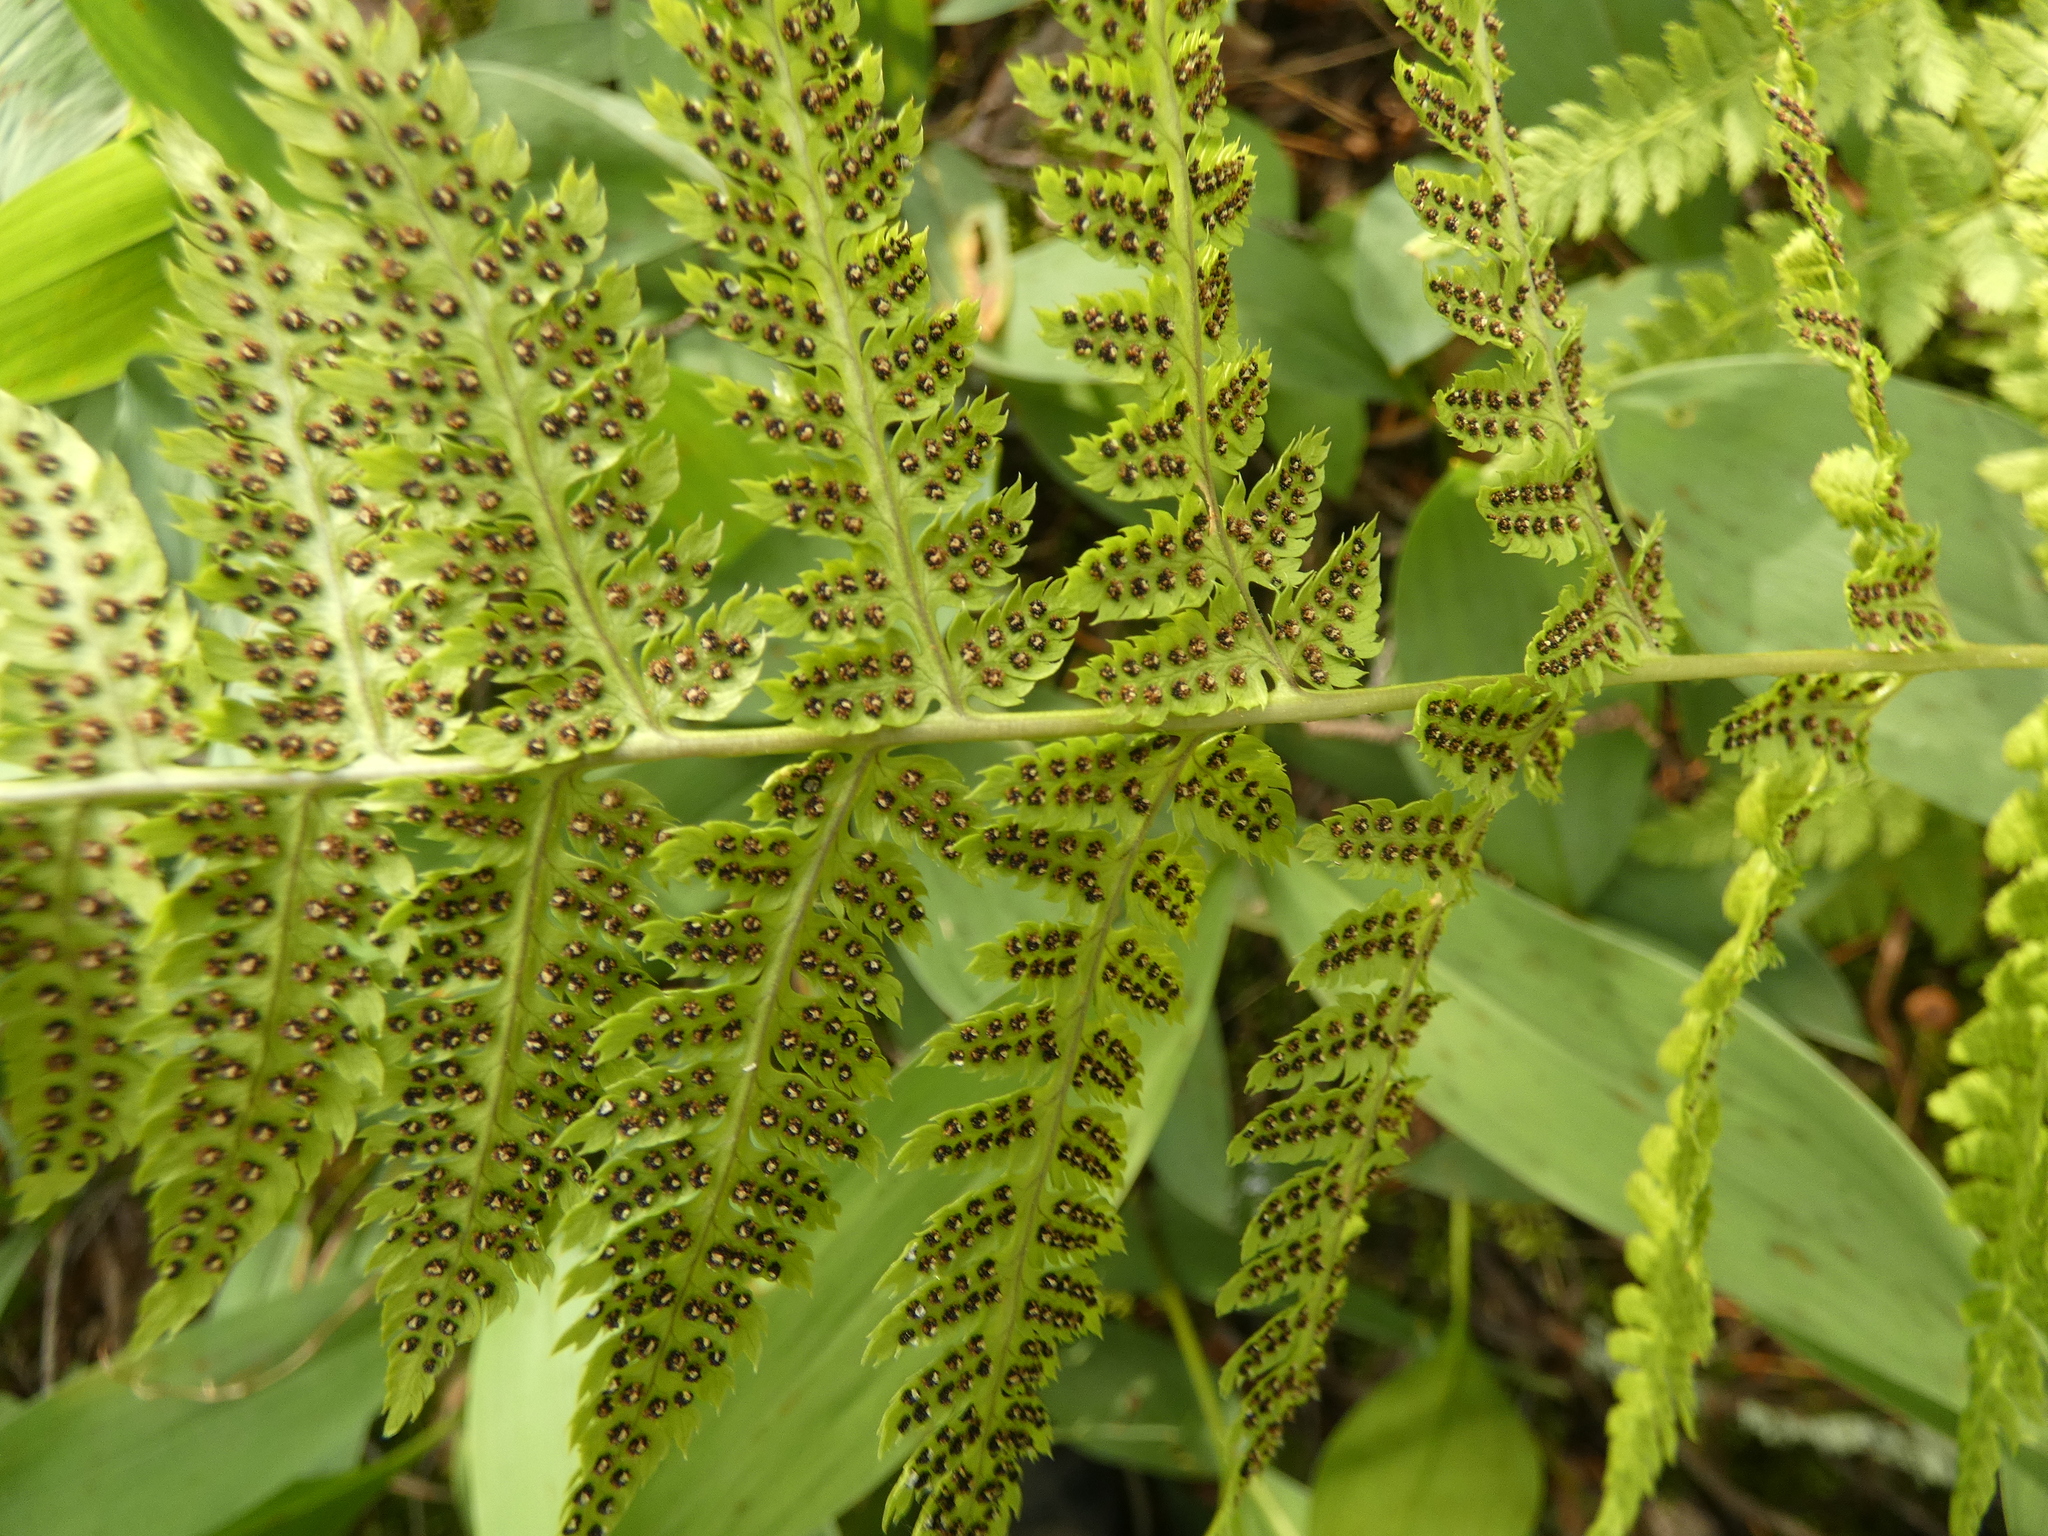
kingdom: Plantae
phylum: Tracheophyta
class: Polypodiopsida
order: Polypodiales
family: Dryopteridaceae
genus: Dryopteris
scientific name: Dryopteris carthusiana
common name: Narrow buckler-fern
